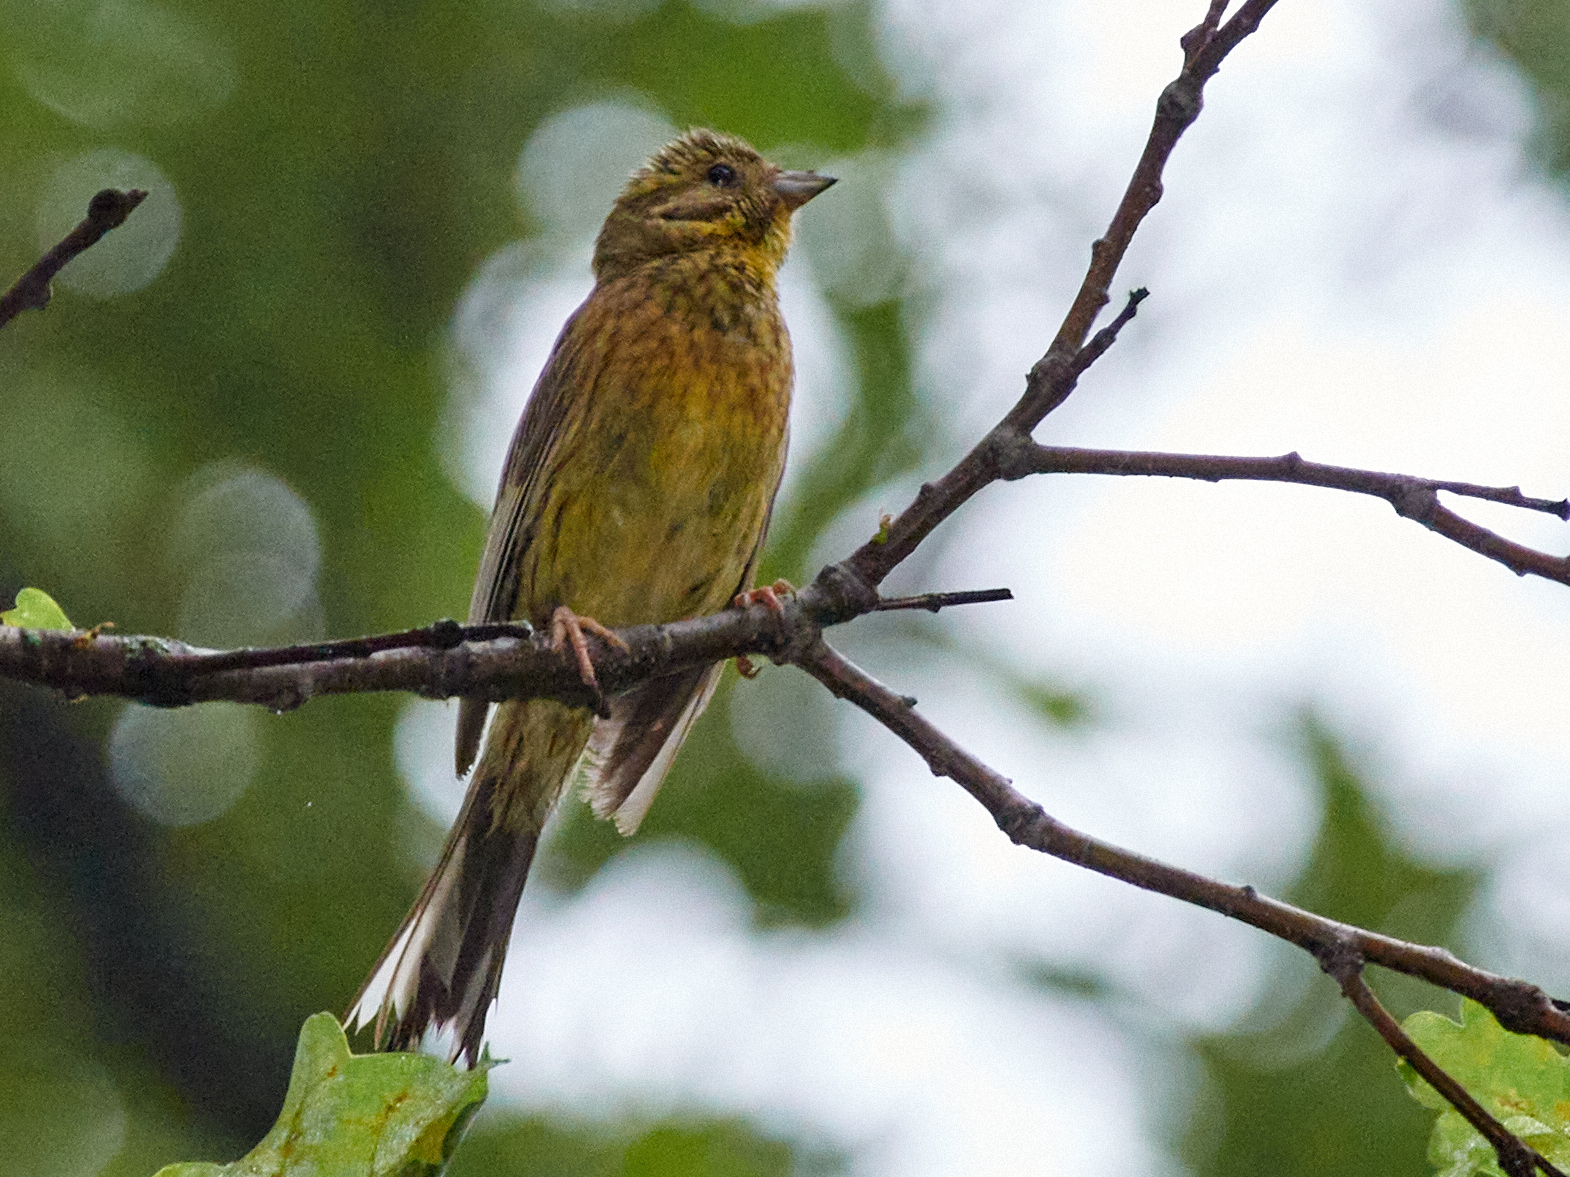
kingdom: Animalia
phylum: Chordata
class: Aves
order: Passeriformes
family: Emberizidae
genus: Emberiza
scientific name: Emberiza citrinella
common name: Yellowhammer
